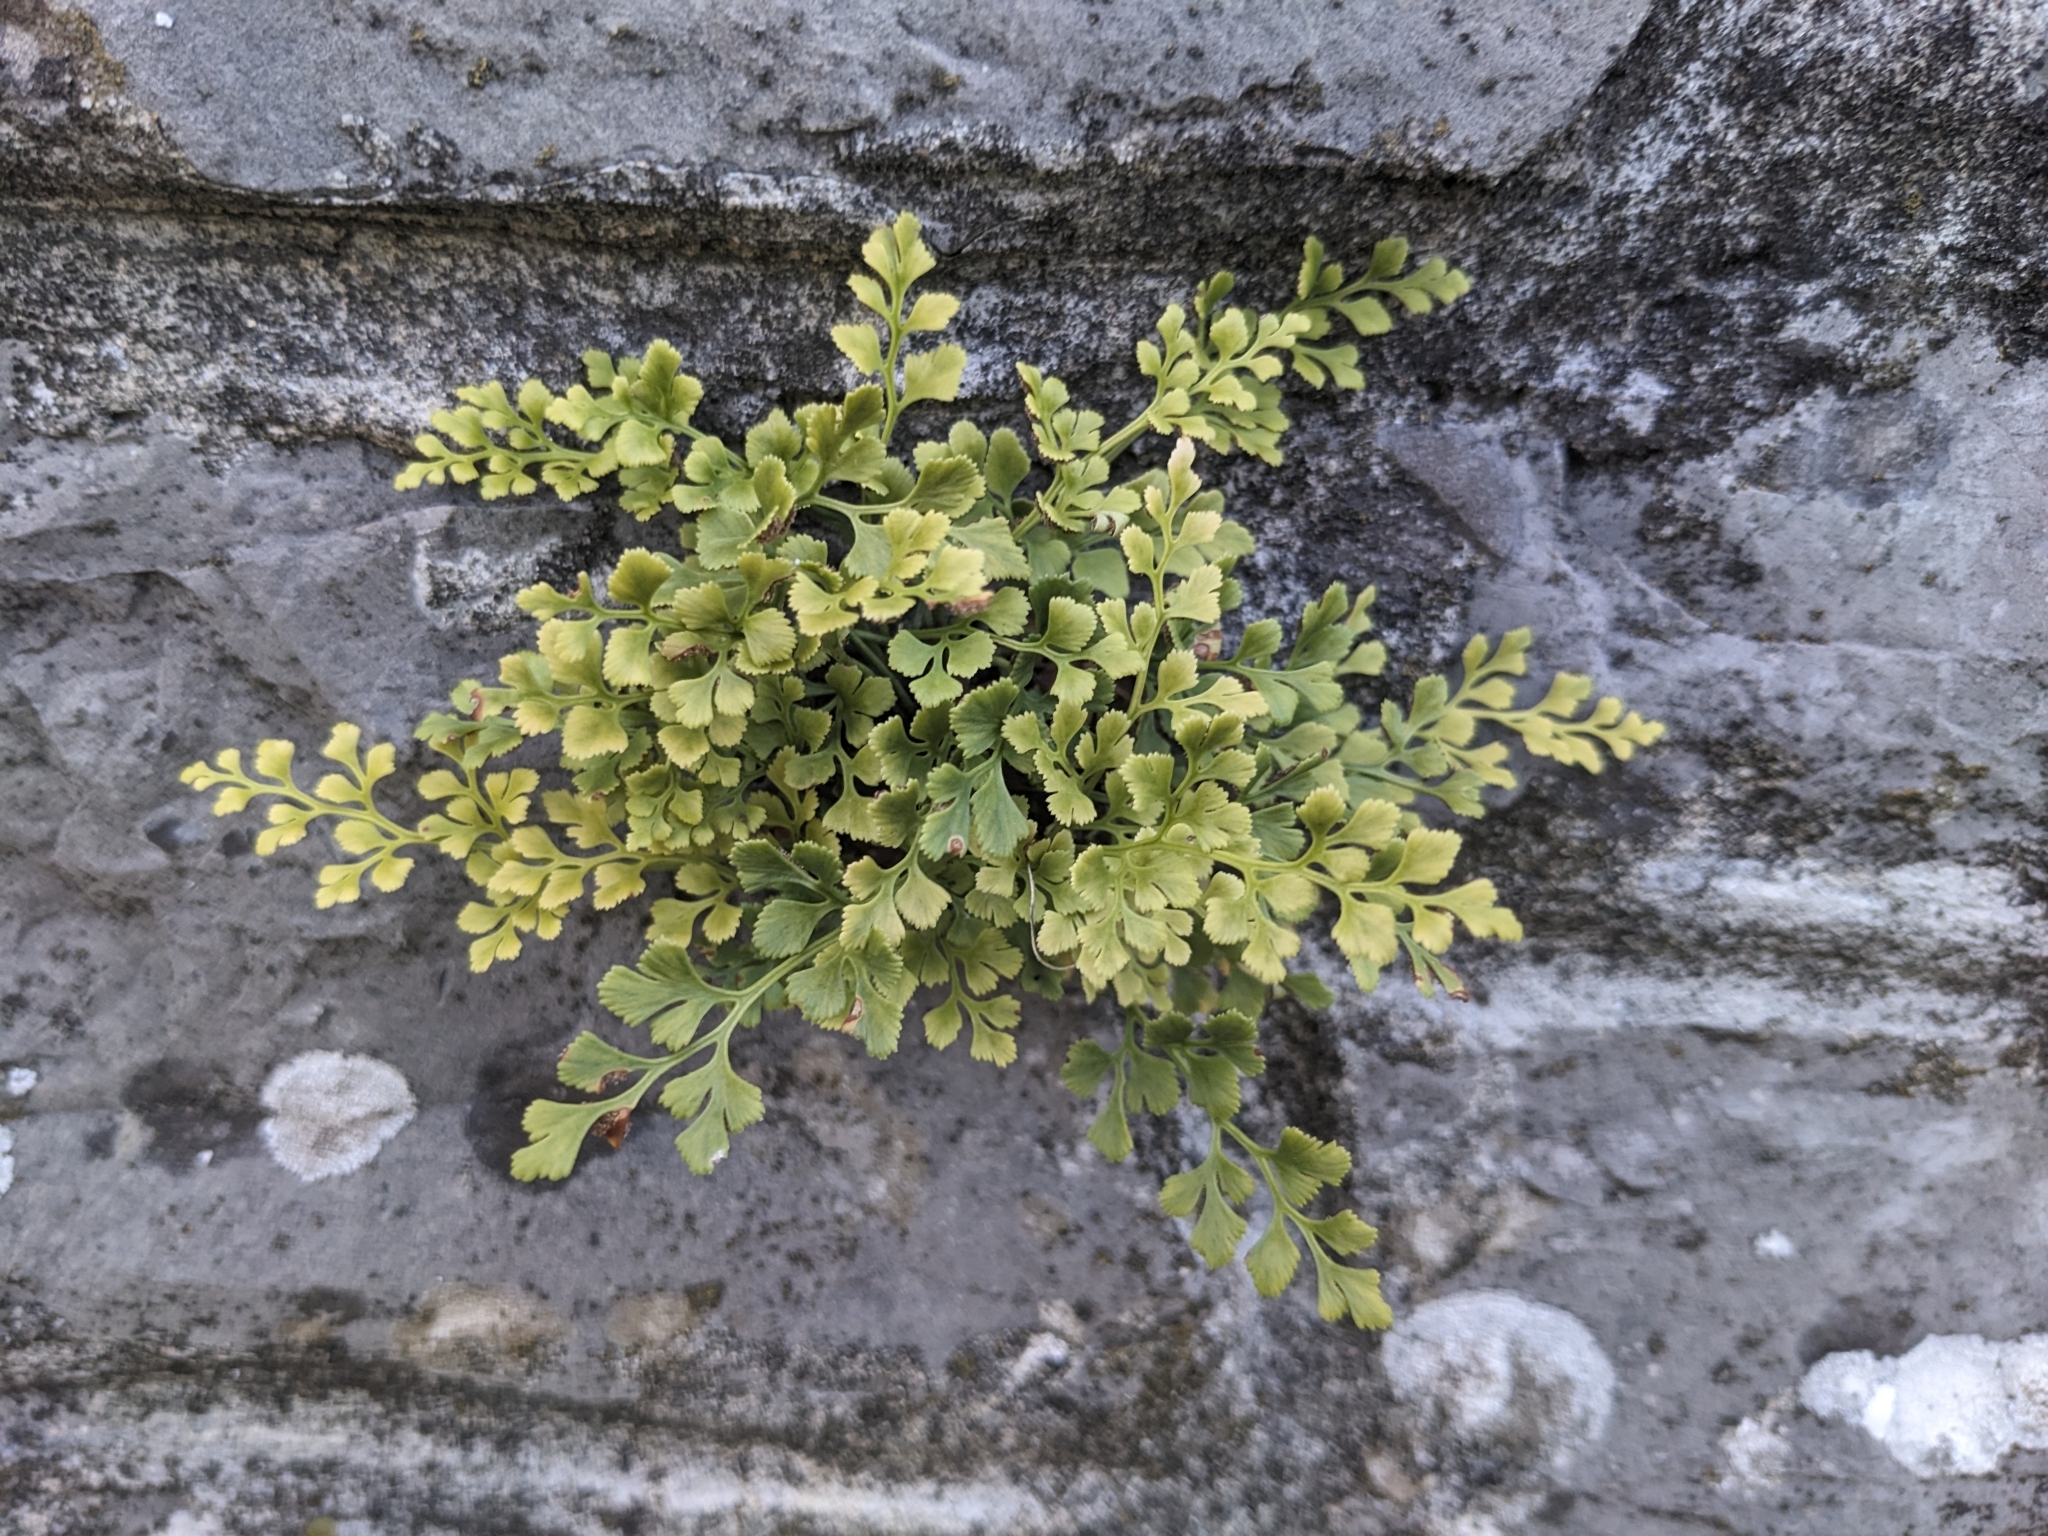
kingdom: Plantae
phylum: Tracheophyta
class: Polypodiopsida
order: Polypodiales
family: Aspleniaceae
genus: Asplenium
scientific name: Asplenium ruta-muraria
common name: Wall-rue
